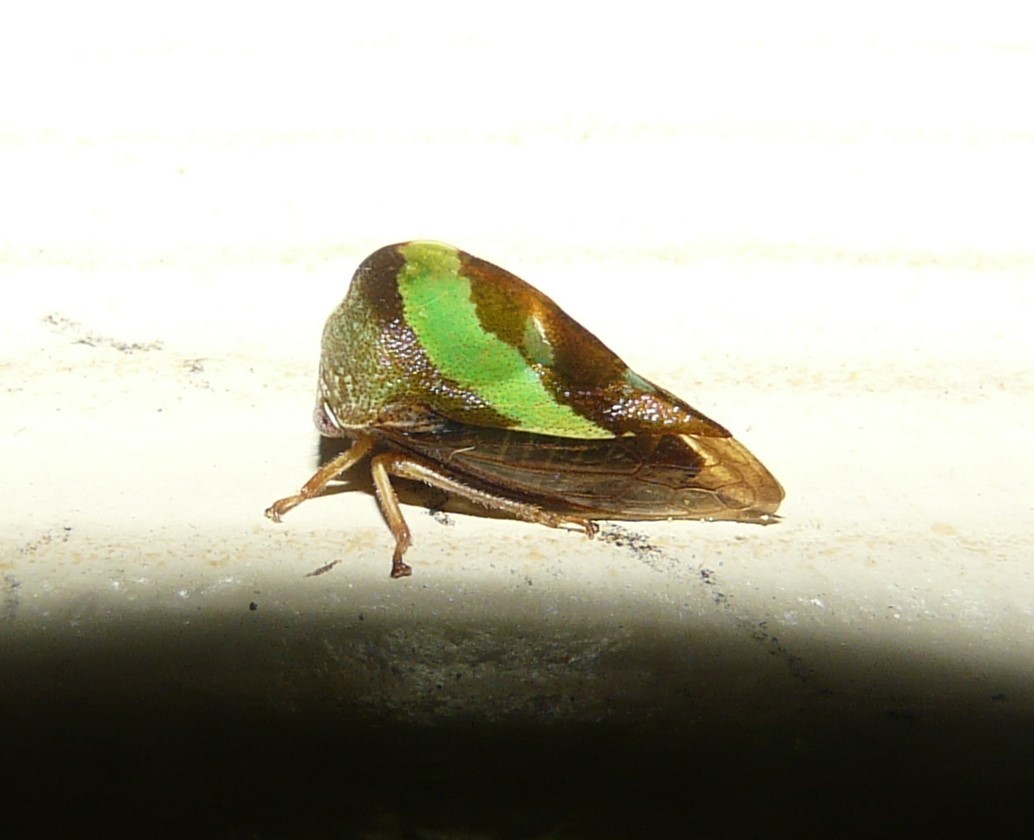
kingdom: Animalia
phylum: Arthropoda
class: Insecta
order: Hemiptera
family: Membracidae
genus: Smilia
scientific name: Smilia camelus
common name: Camel treehopper
